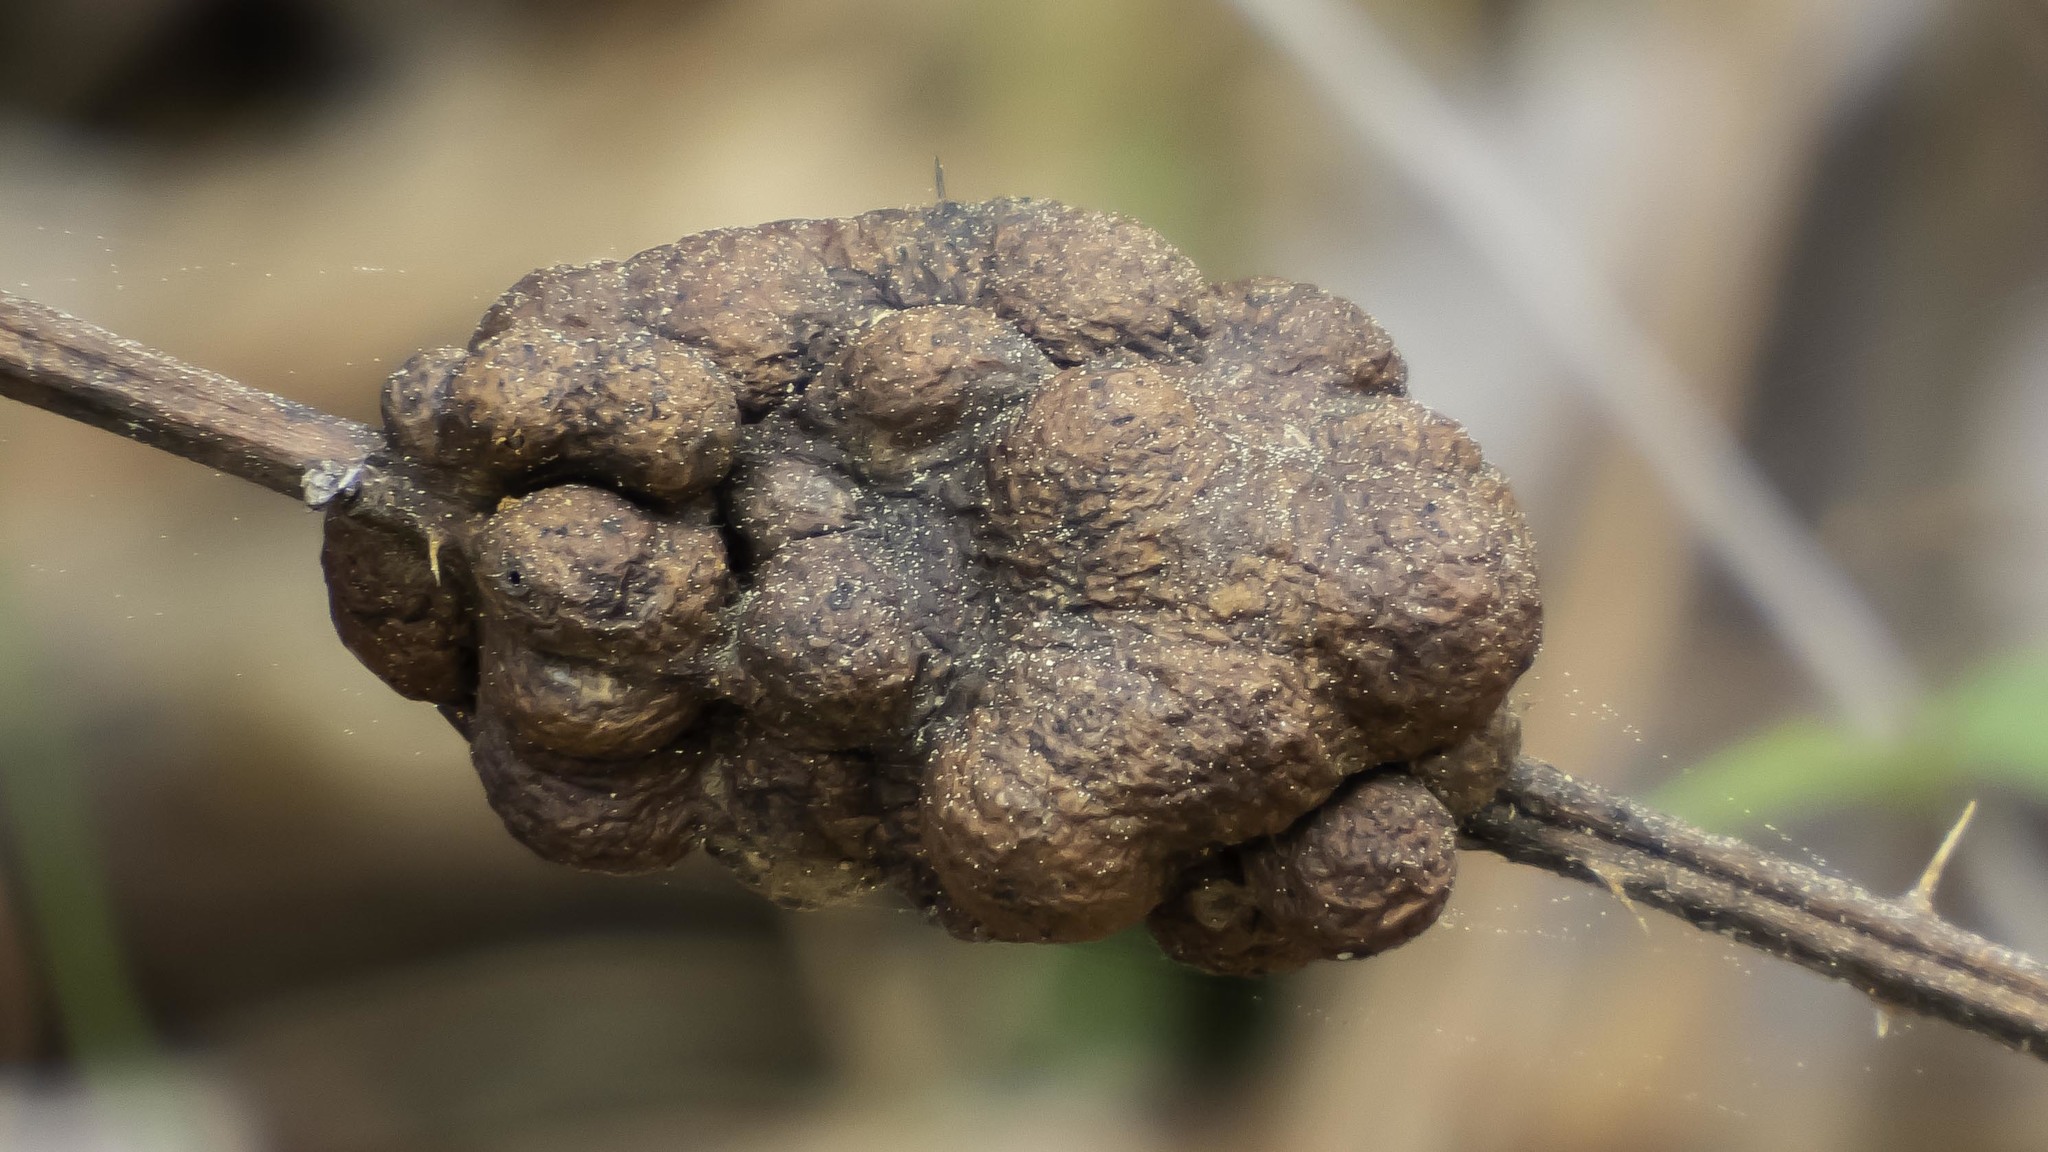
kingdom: Animalia
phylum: Arthropoda
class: Insecta
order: Hymenoptera
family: Cynipidae
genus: Diastrophus
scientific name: Diastrophus
